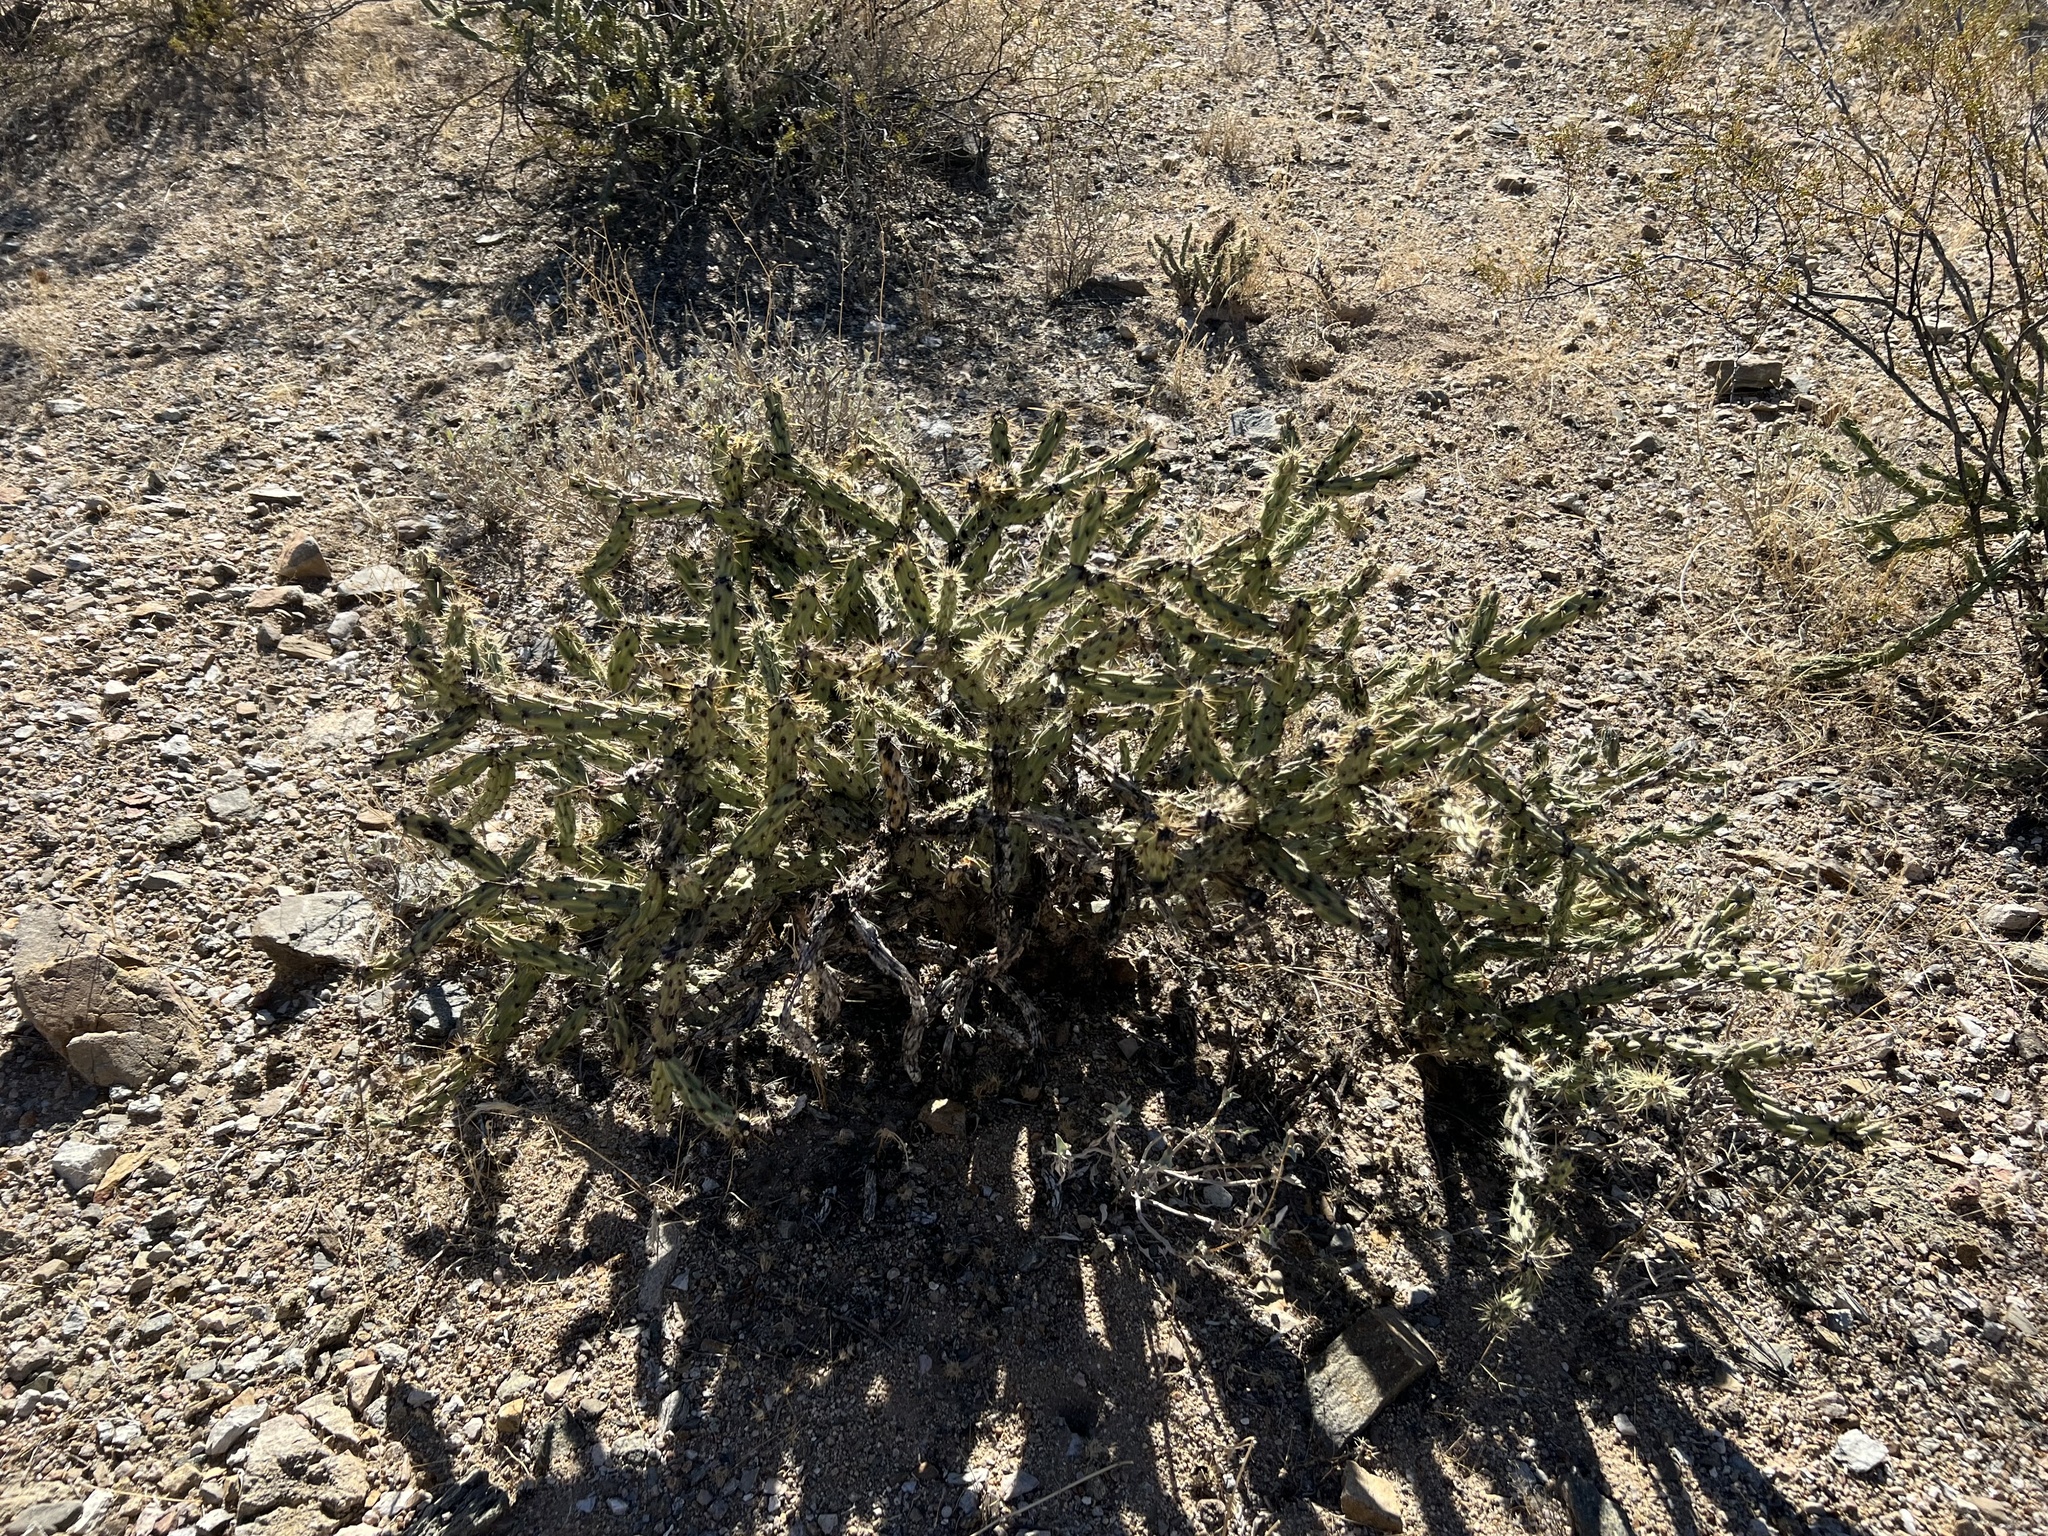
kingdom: Plantae
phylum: Tracheophyta
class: Magnoliopsida
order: Caryophyllales
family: Cactaceae
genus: Cylindropuntia
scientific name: Cylindropuntia acanthocarpa
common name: Buckhorn cholla
